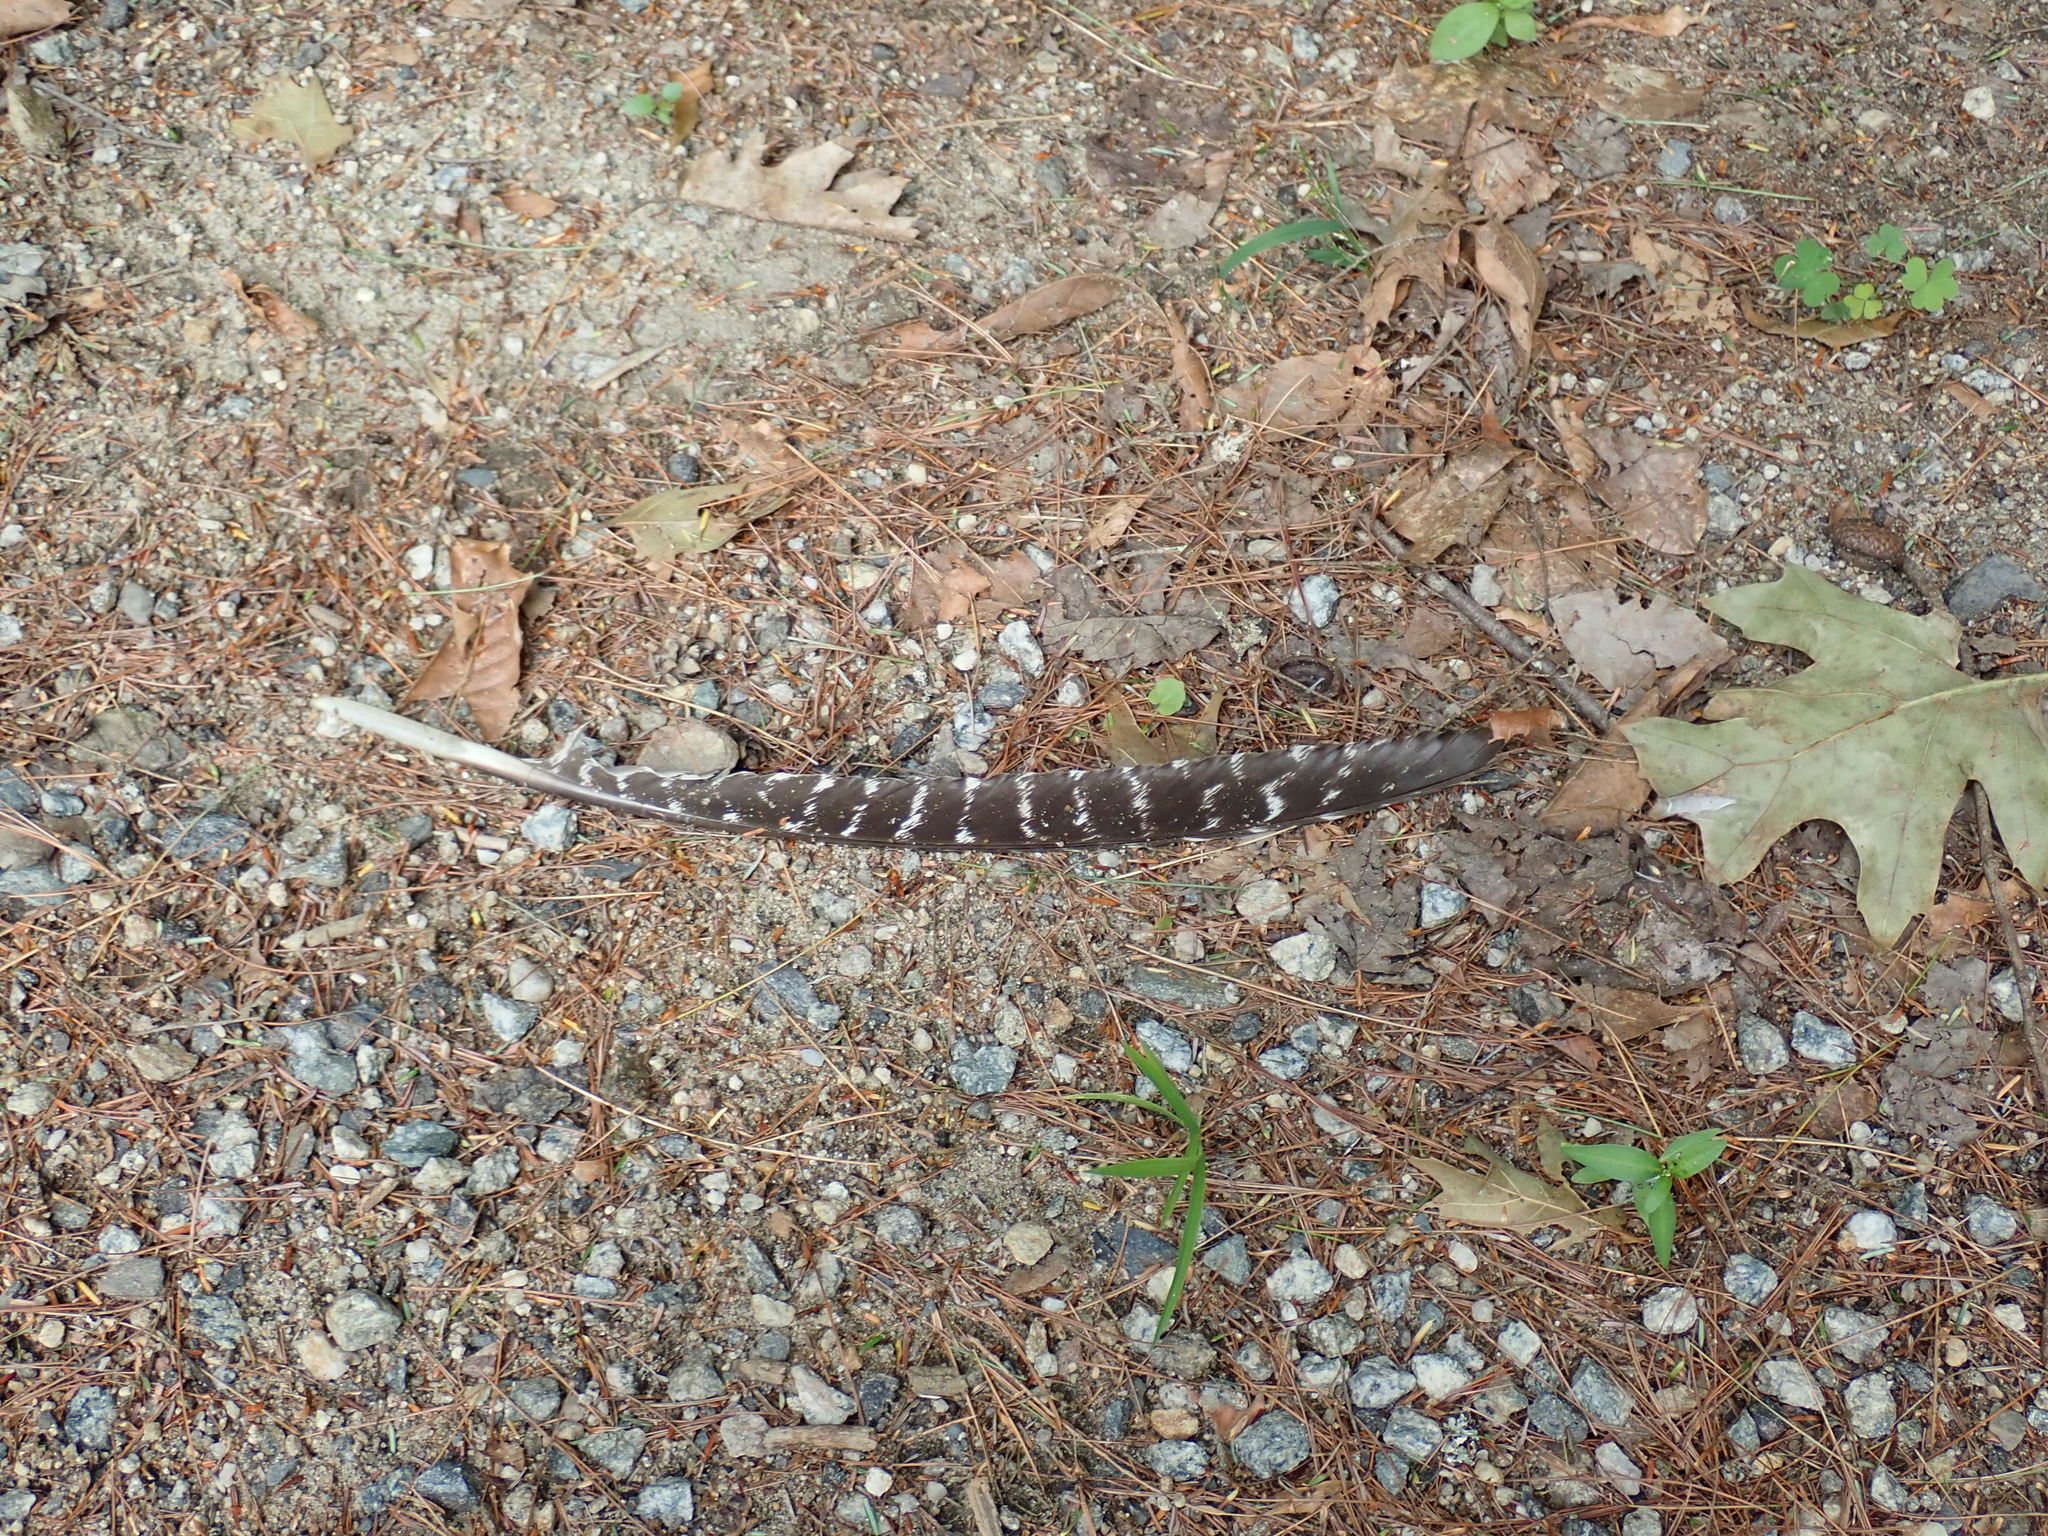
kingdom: Animalia
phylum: Chordata
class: Aves
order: Galliformes
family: Phasianidae
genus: Meleagris
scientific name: Meleagris gallopavo
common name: Wild turkey
